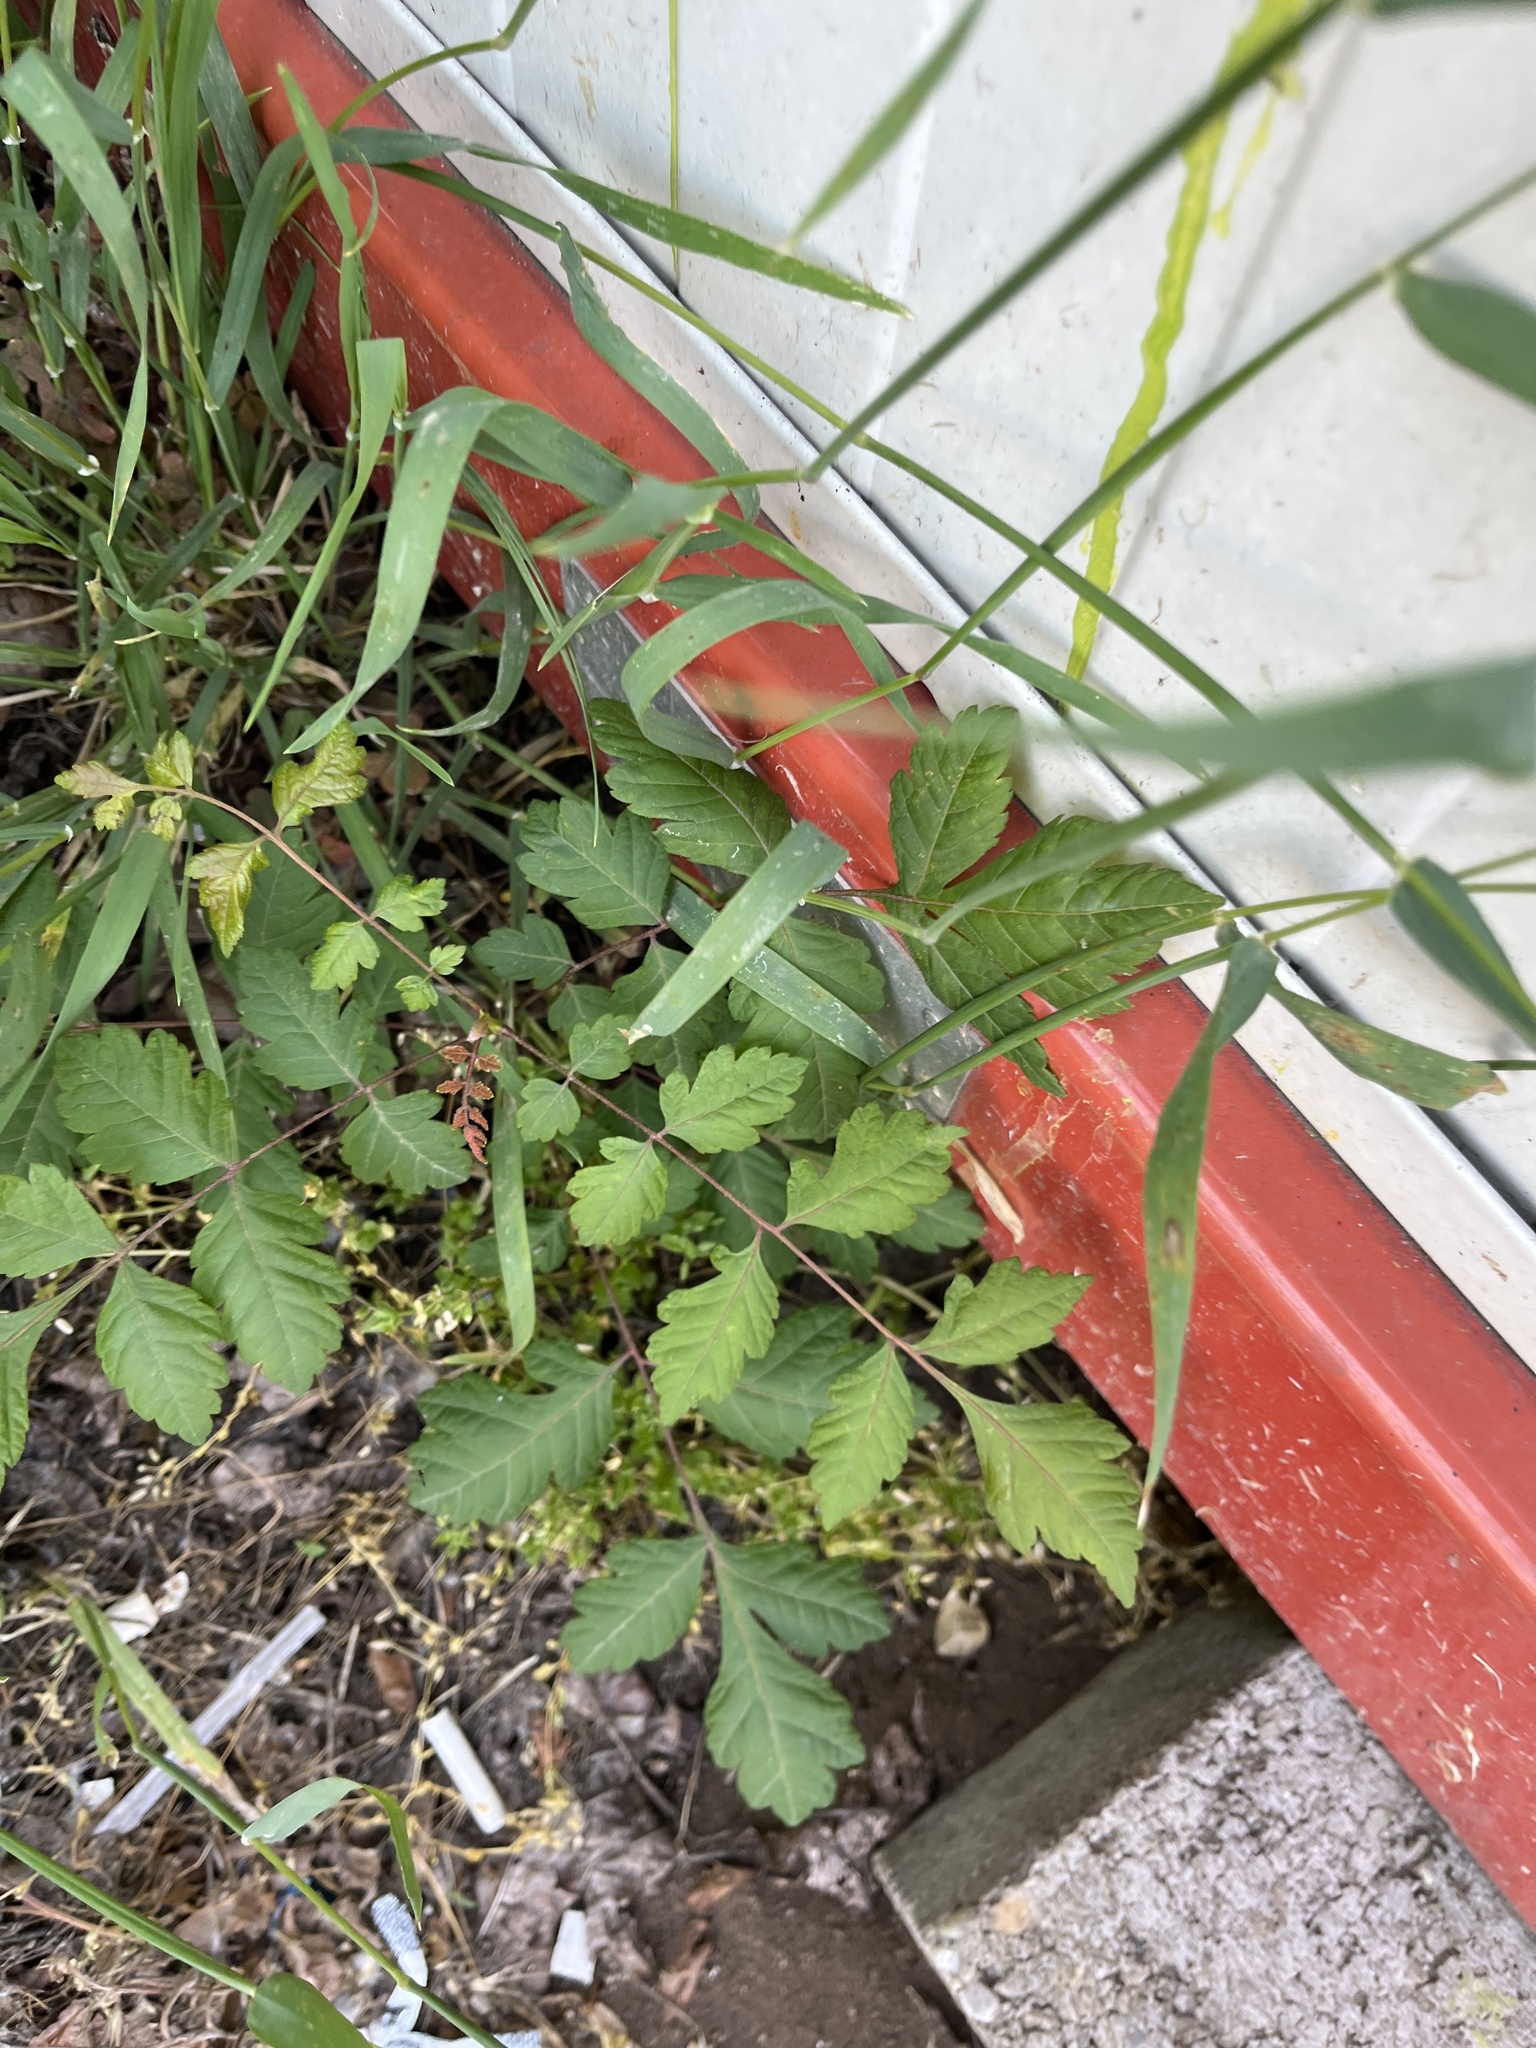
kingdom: Plantae
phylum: Tracheophyta
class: Magnoliopsida
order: Sapindales
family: Sapindaceae
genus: Koelreuteria
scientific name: Koelreuteria paniculata
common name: Pride-of-india
